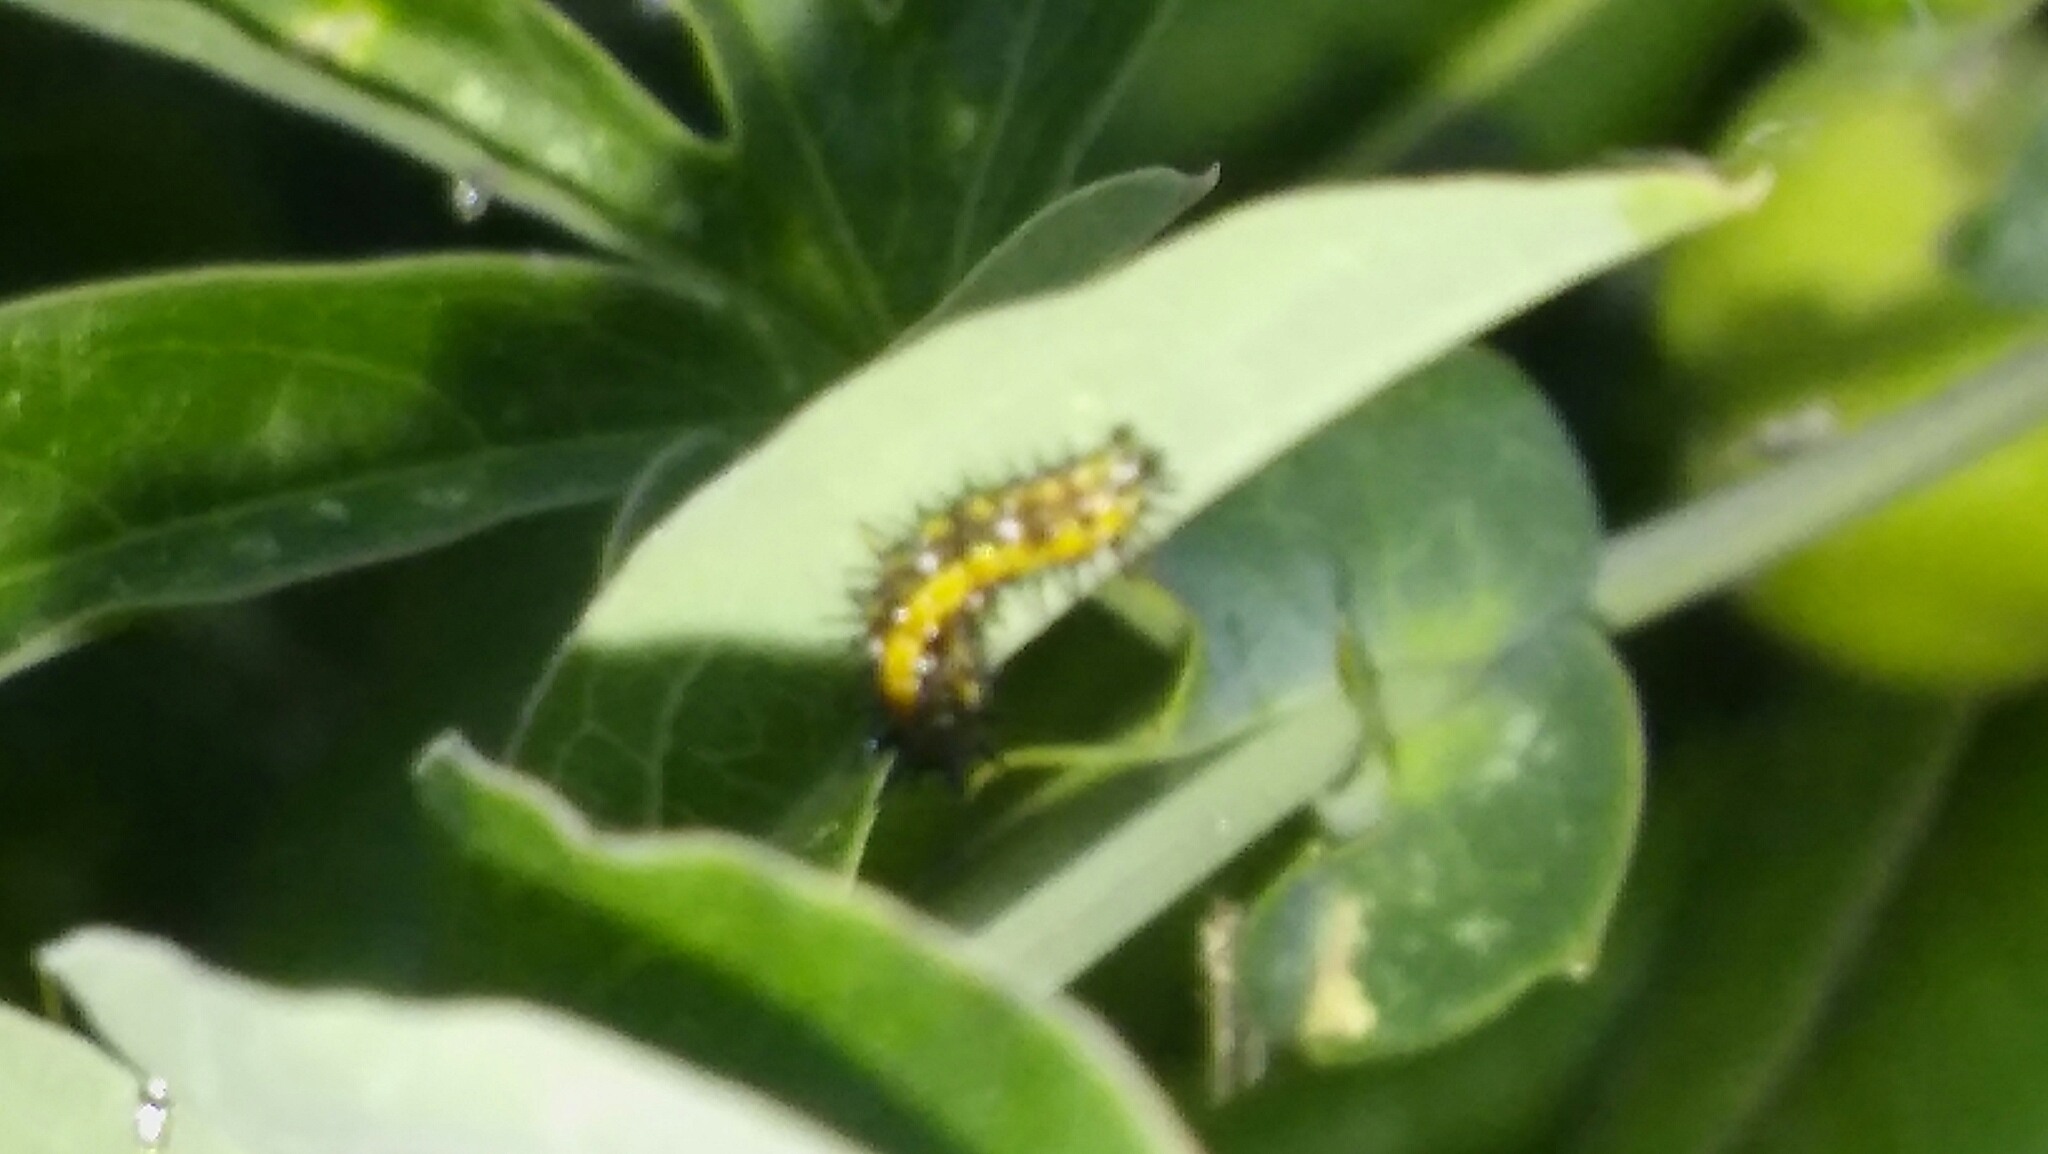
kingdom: Animalia
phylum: Arthropoda
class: Insecta
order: Lepidoptera
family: Nymphalidae
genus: Dione
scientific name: Dione vanillae
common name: Gulf fritillary
